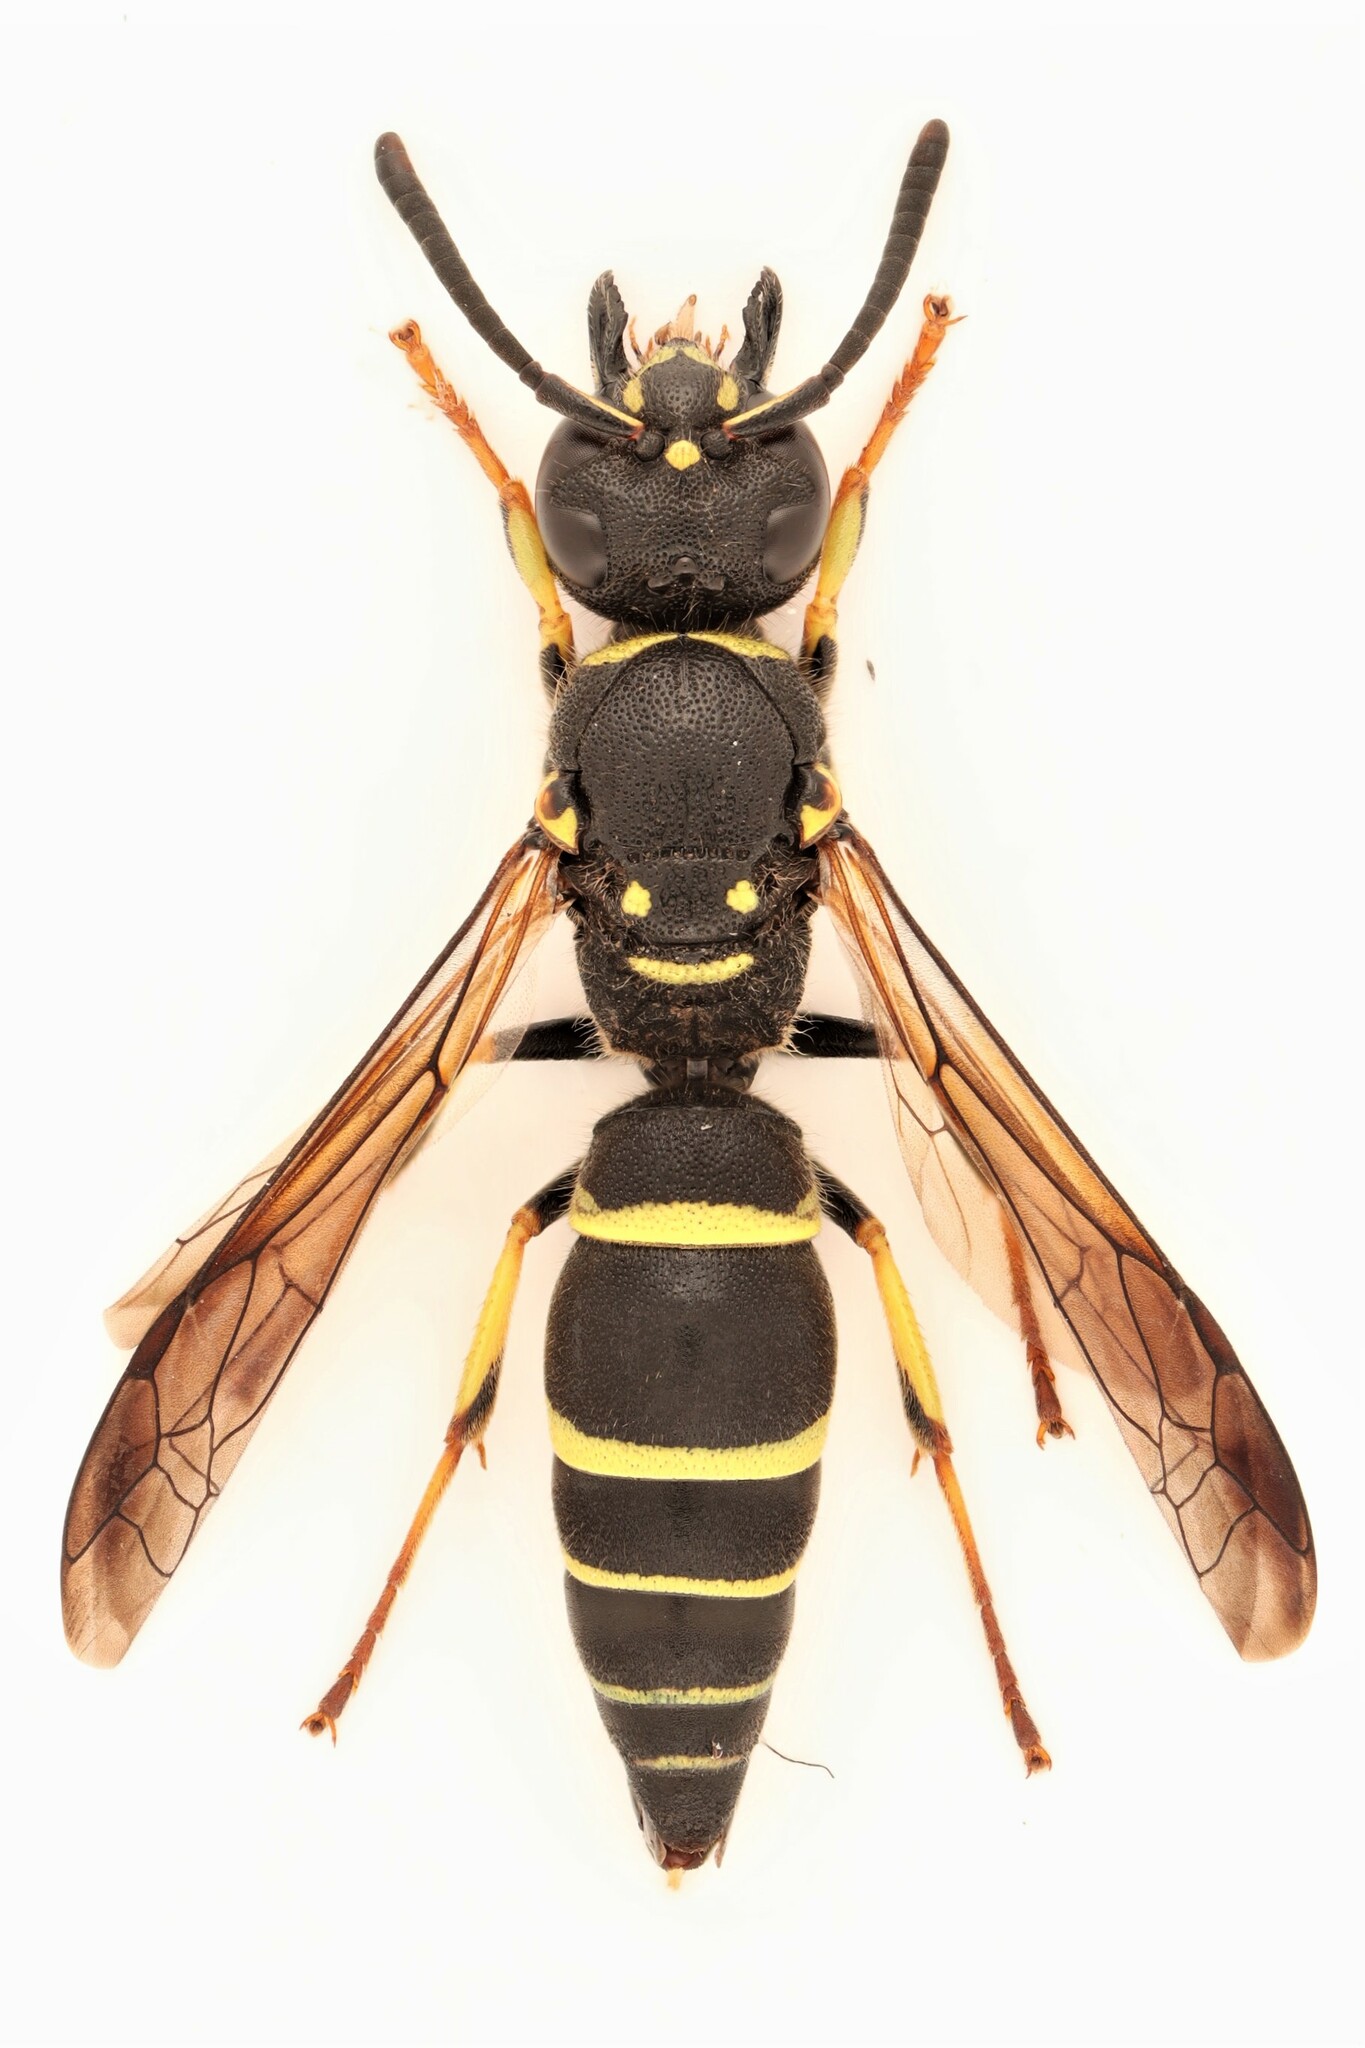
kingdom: Animalia
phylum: Arthropoda
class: Insecta
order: Hymenoptera
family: Vespidae
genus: Ancistrocerus
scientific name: Ancistrocerus adiabatus
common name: Bramble mason wasp
